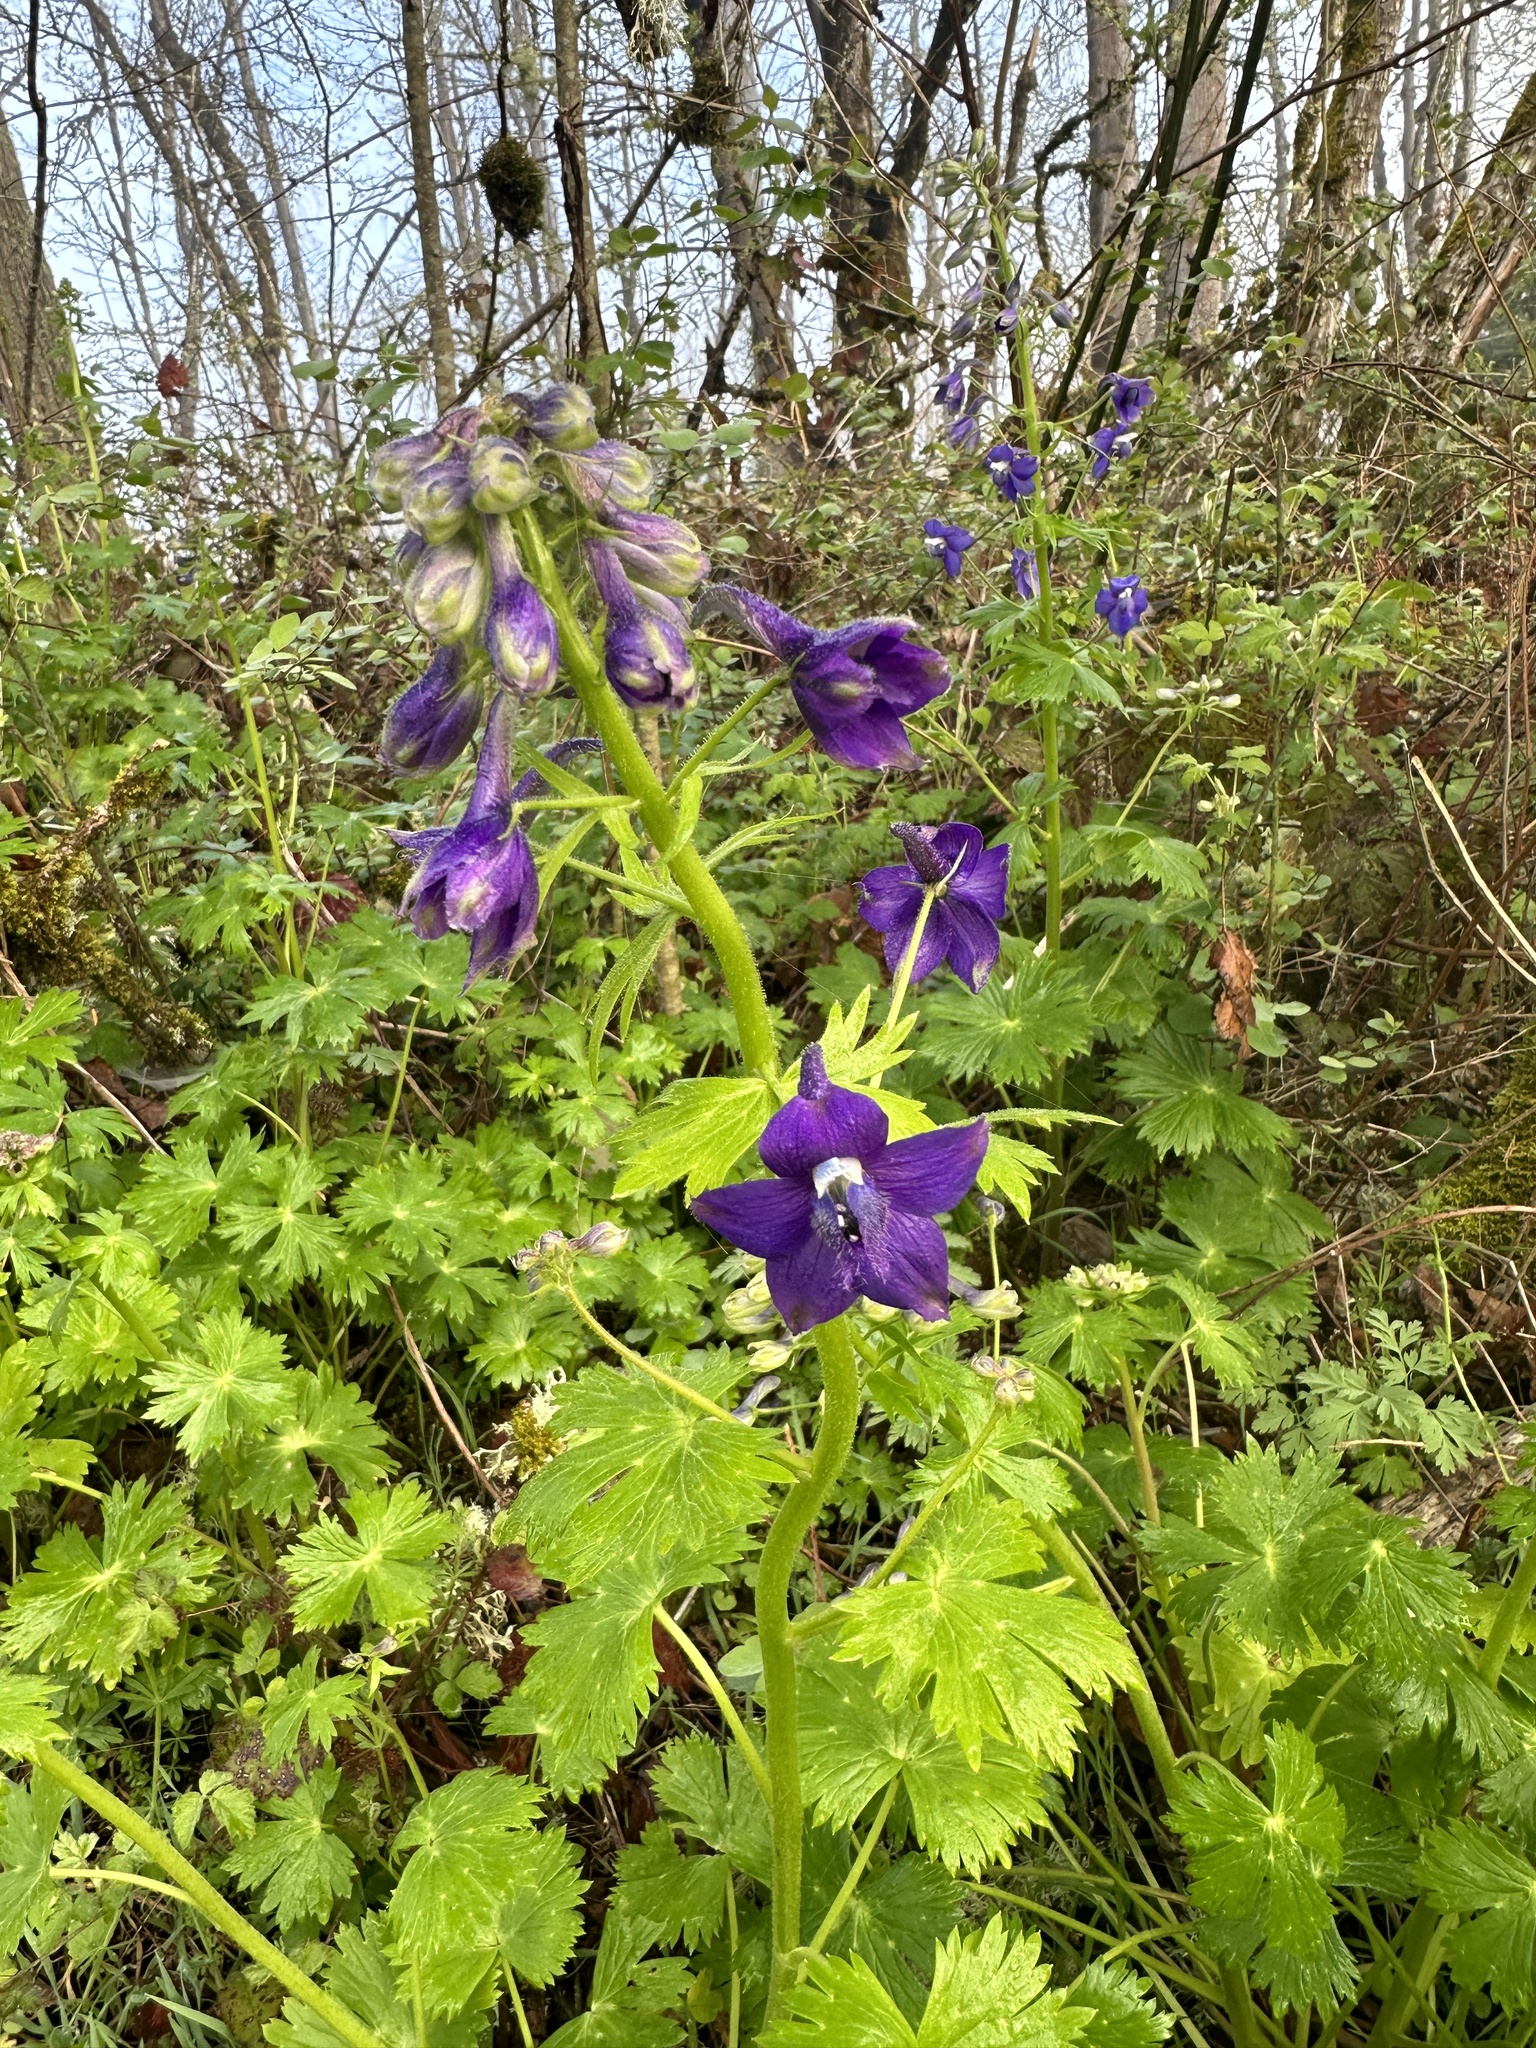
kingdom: Plantae
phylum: Tracheophyta
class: Magnoliopsida
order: Ranunculales
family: Ranunculaceae
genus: Delphinium
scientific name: Delphinium trolliifolium
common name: Cow-poison
